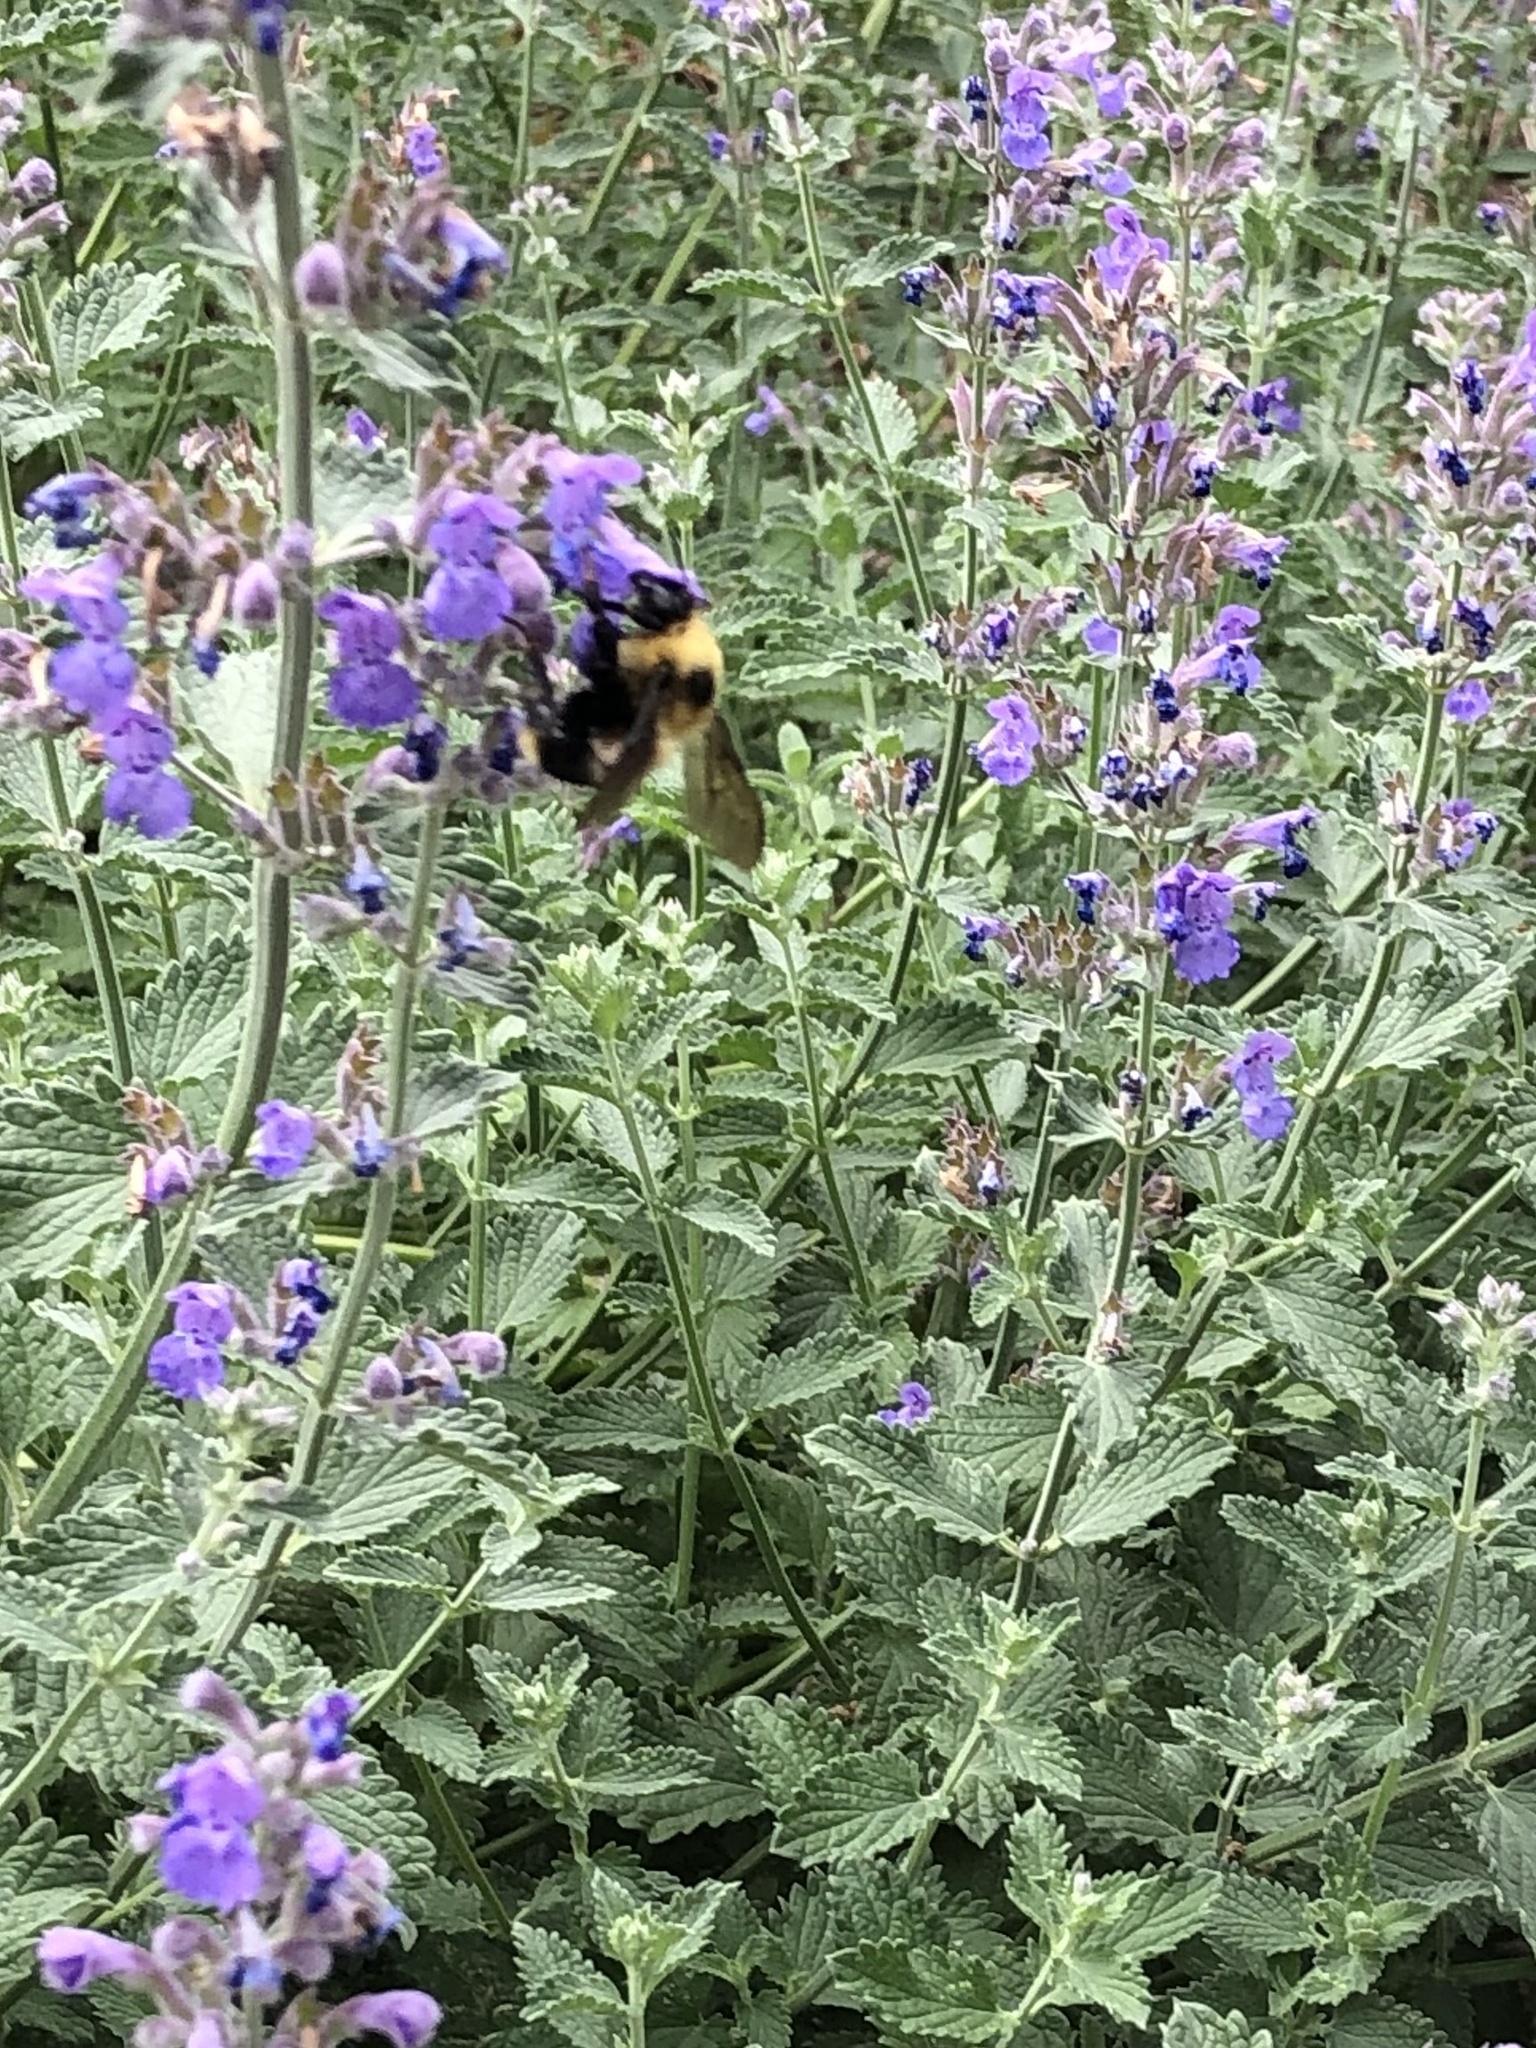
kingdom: Animalia
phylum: Arthropoda
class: Insecta
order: Hymenoptera
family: Apidae
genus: Bombus
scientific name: Bombus rufocinctus
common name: Red-belted bumble bee
